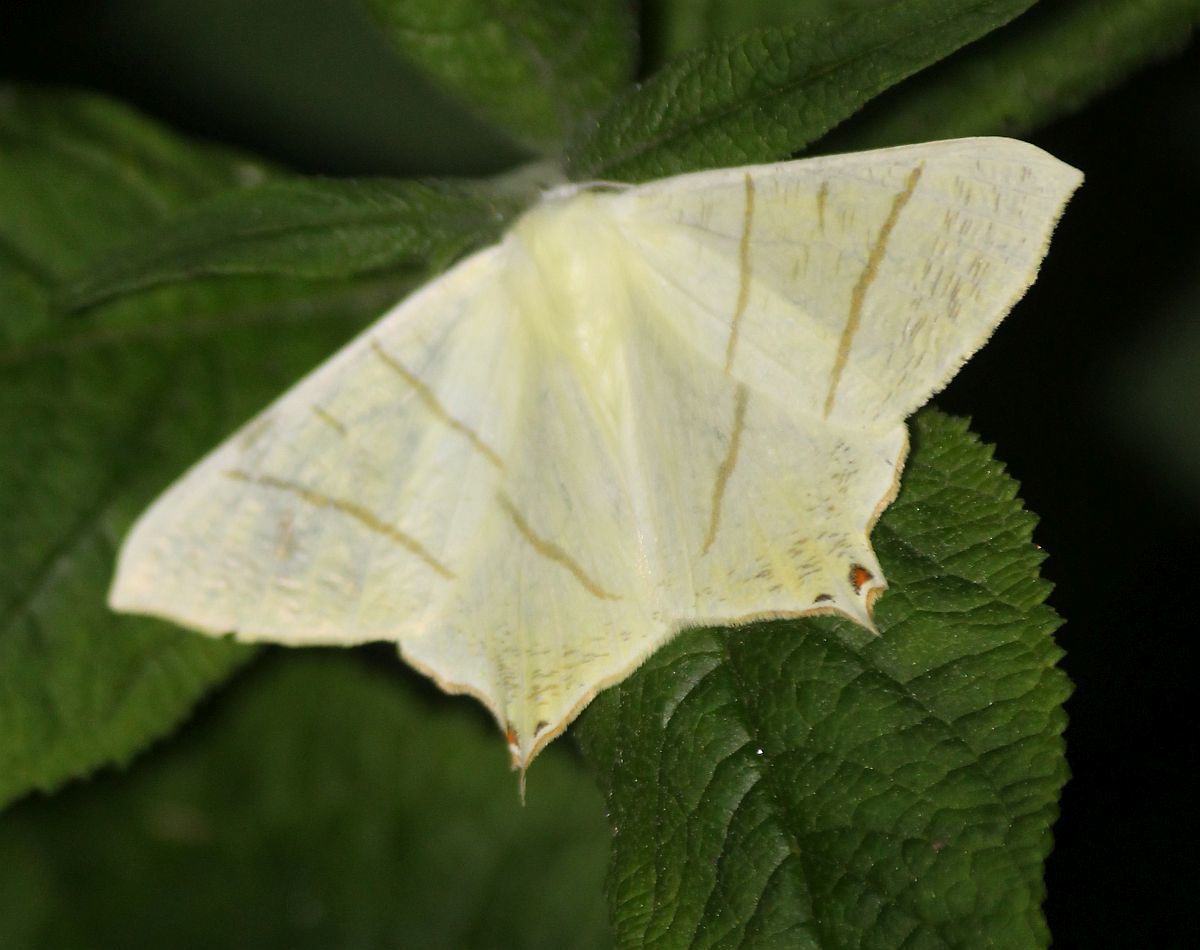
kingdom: Animalia
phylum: Arthropoda
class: Insecta
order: Lepidoptera
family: Geometridae
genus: Ourapteryx
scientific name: Ourapteryx sambucaria
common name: Swallow-tailed moth
